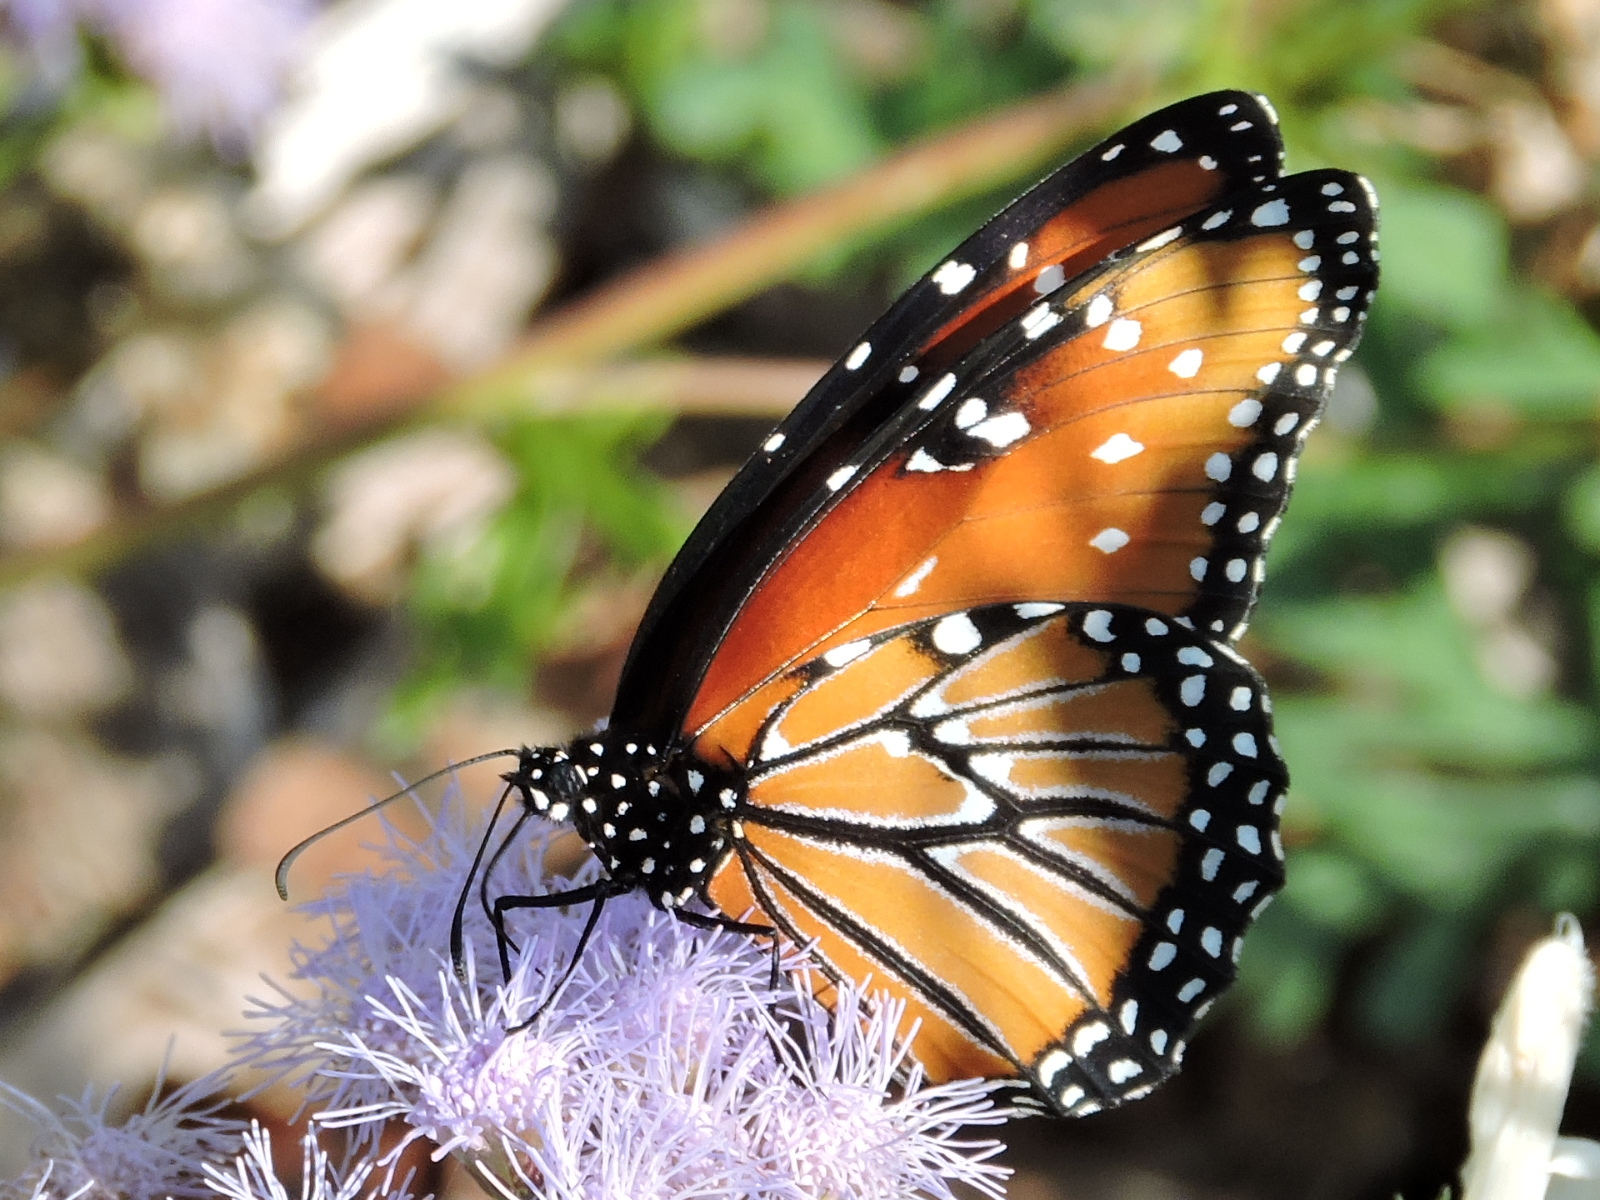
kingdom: Animalia
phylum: Arthropoda
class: Insecta
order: Lepidoptera
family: Nymphalidae
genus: Danaus
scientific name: Danaus gilippus
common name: Queen
